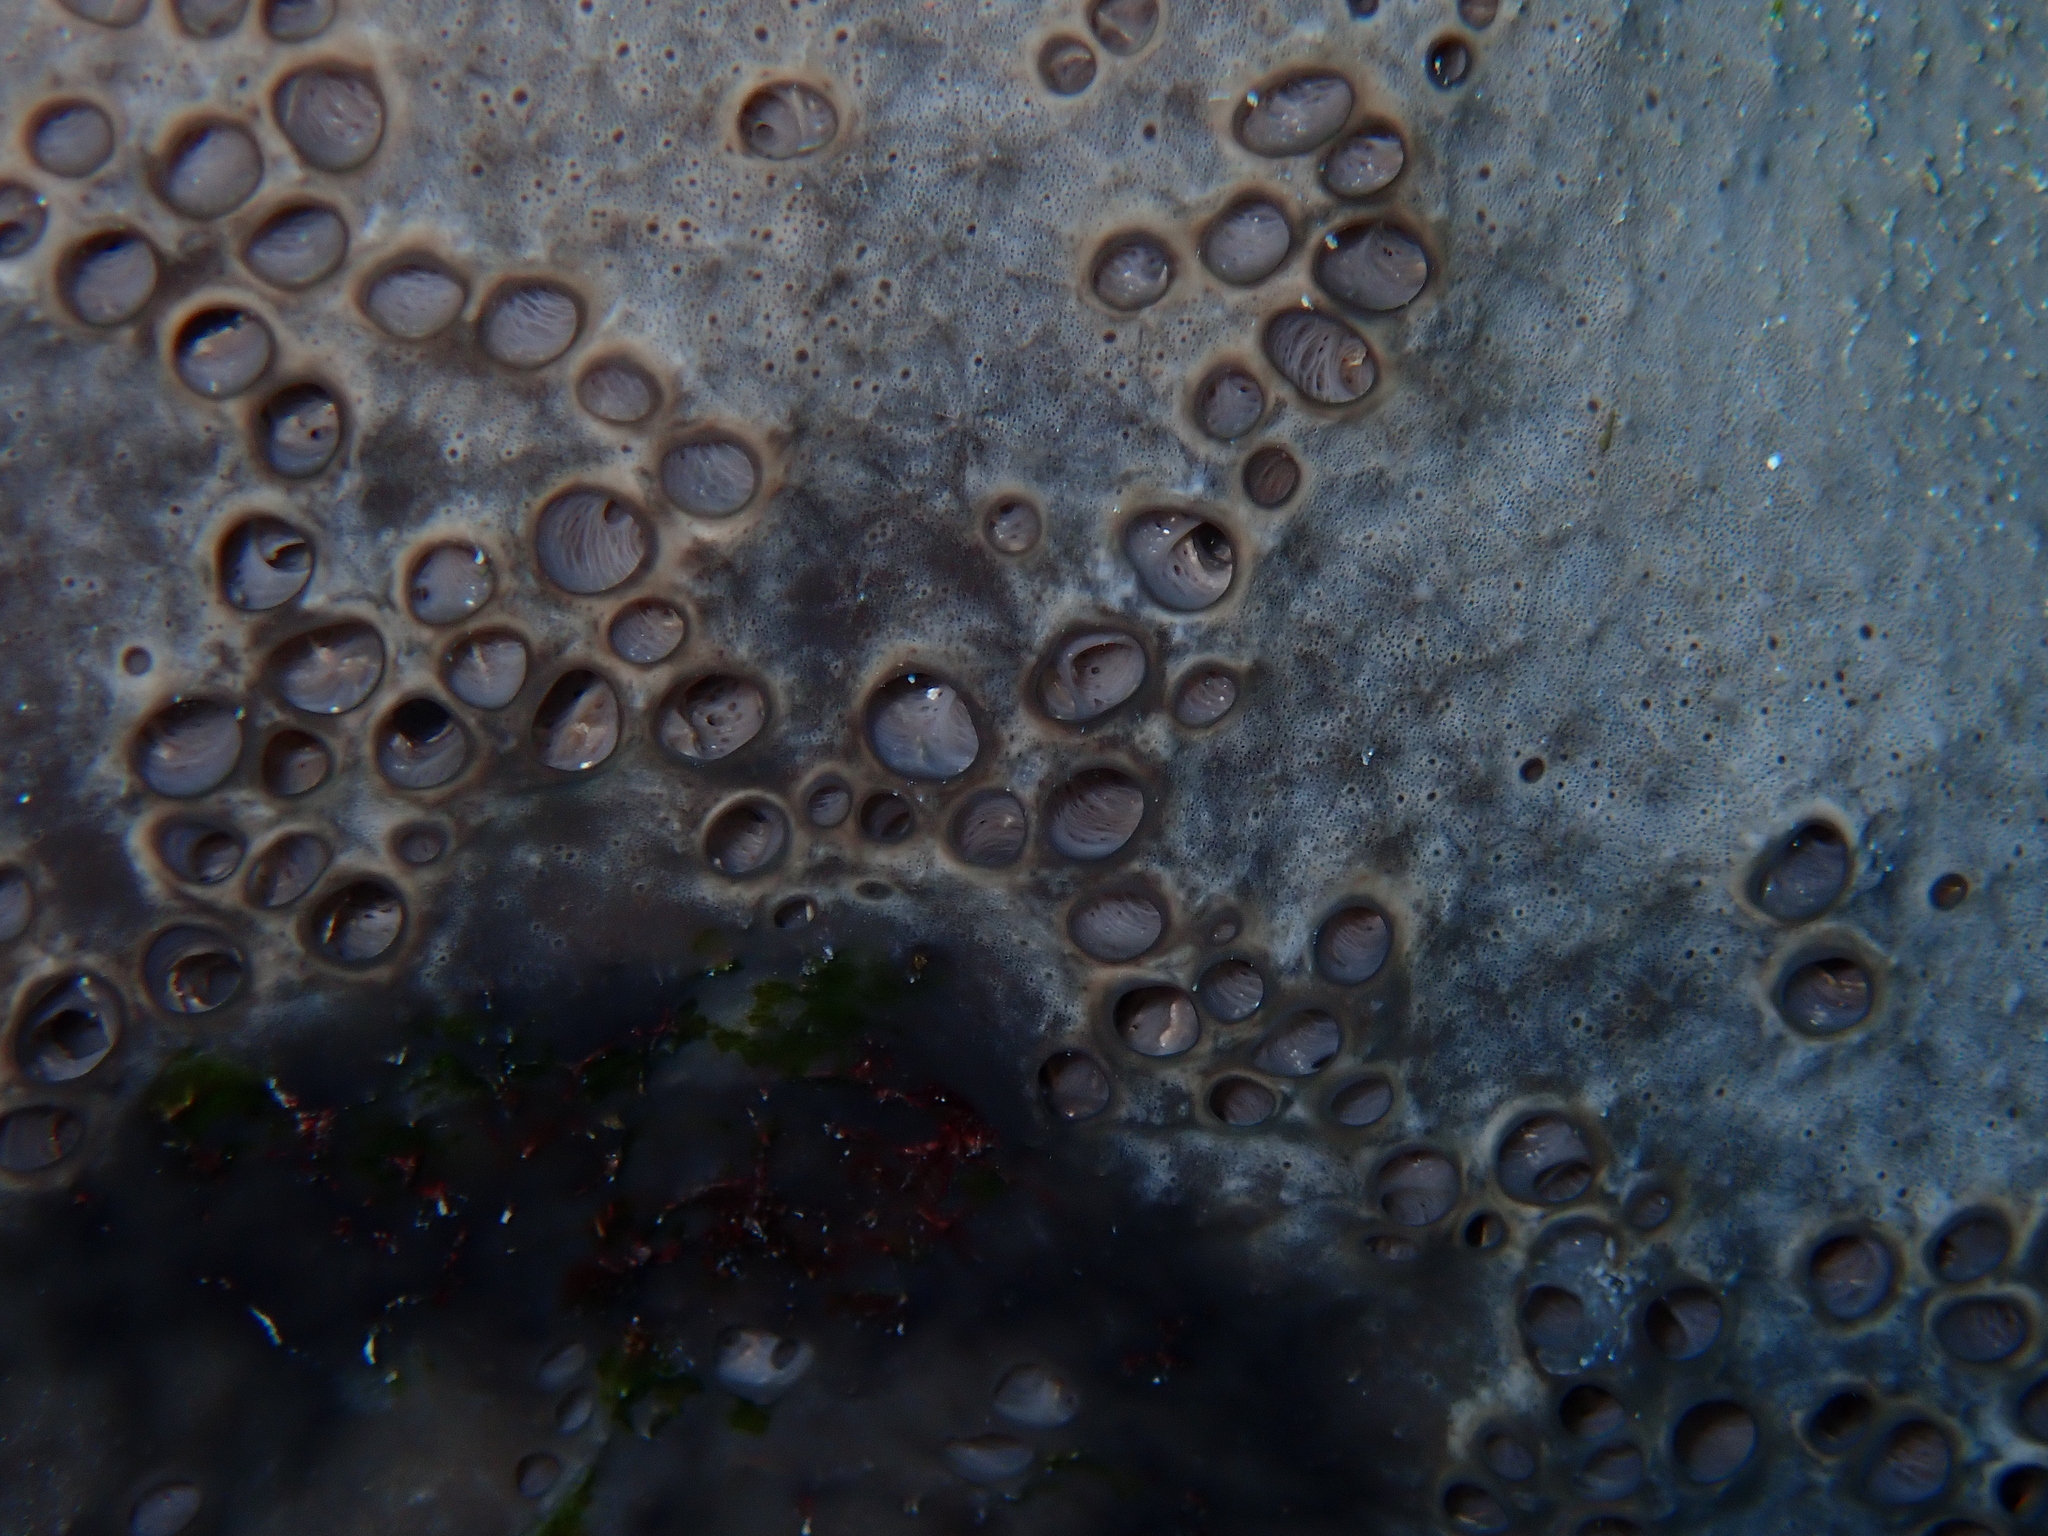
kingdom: Animalia
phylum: Porifera
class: Demospongiae
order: Dictyoceratida
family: Irciniidae
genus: Ircinia
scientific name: Ircinia echinata
